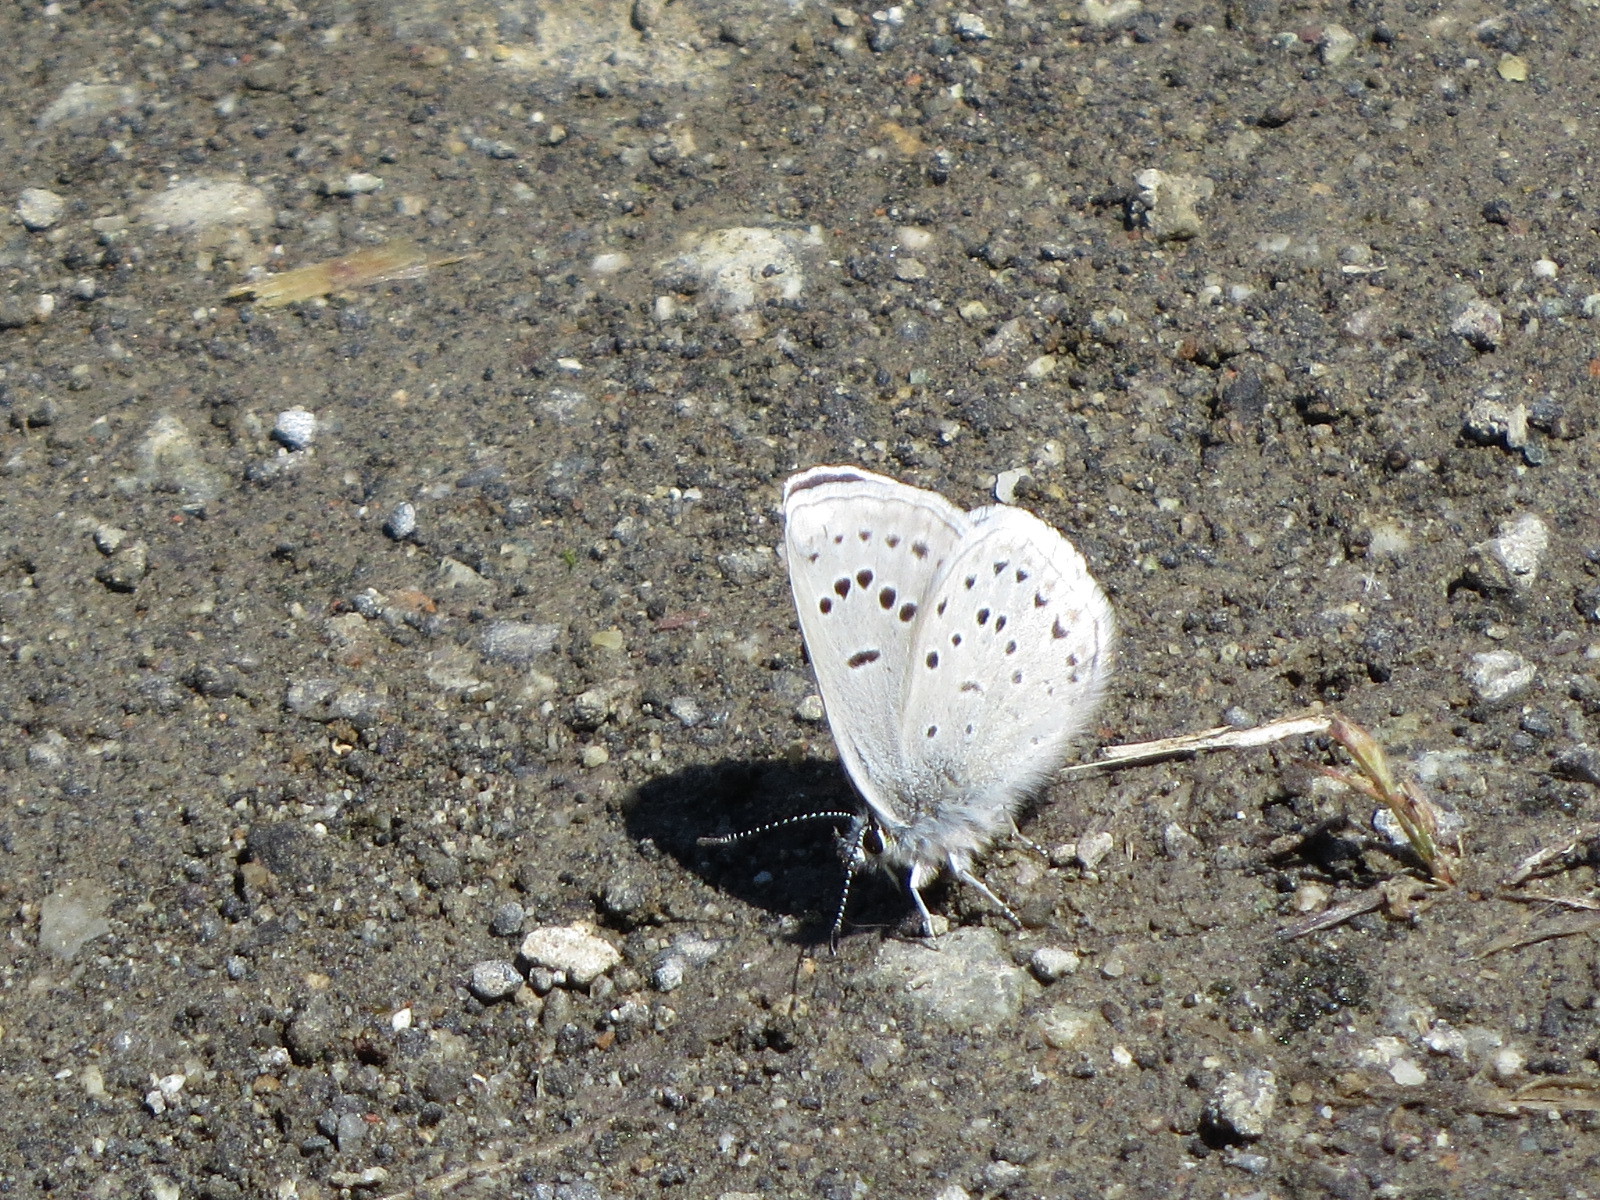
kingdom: Animalia
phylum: Arthropoda
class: Insecta
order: Lepidoptera
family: Lycaenidae
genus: Icaricia
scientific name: Icaricia icarioides
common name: Boisduval's blue
